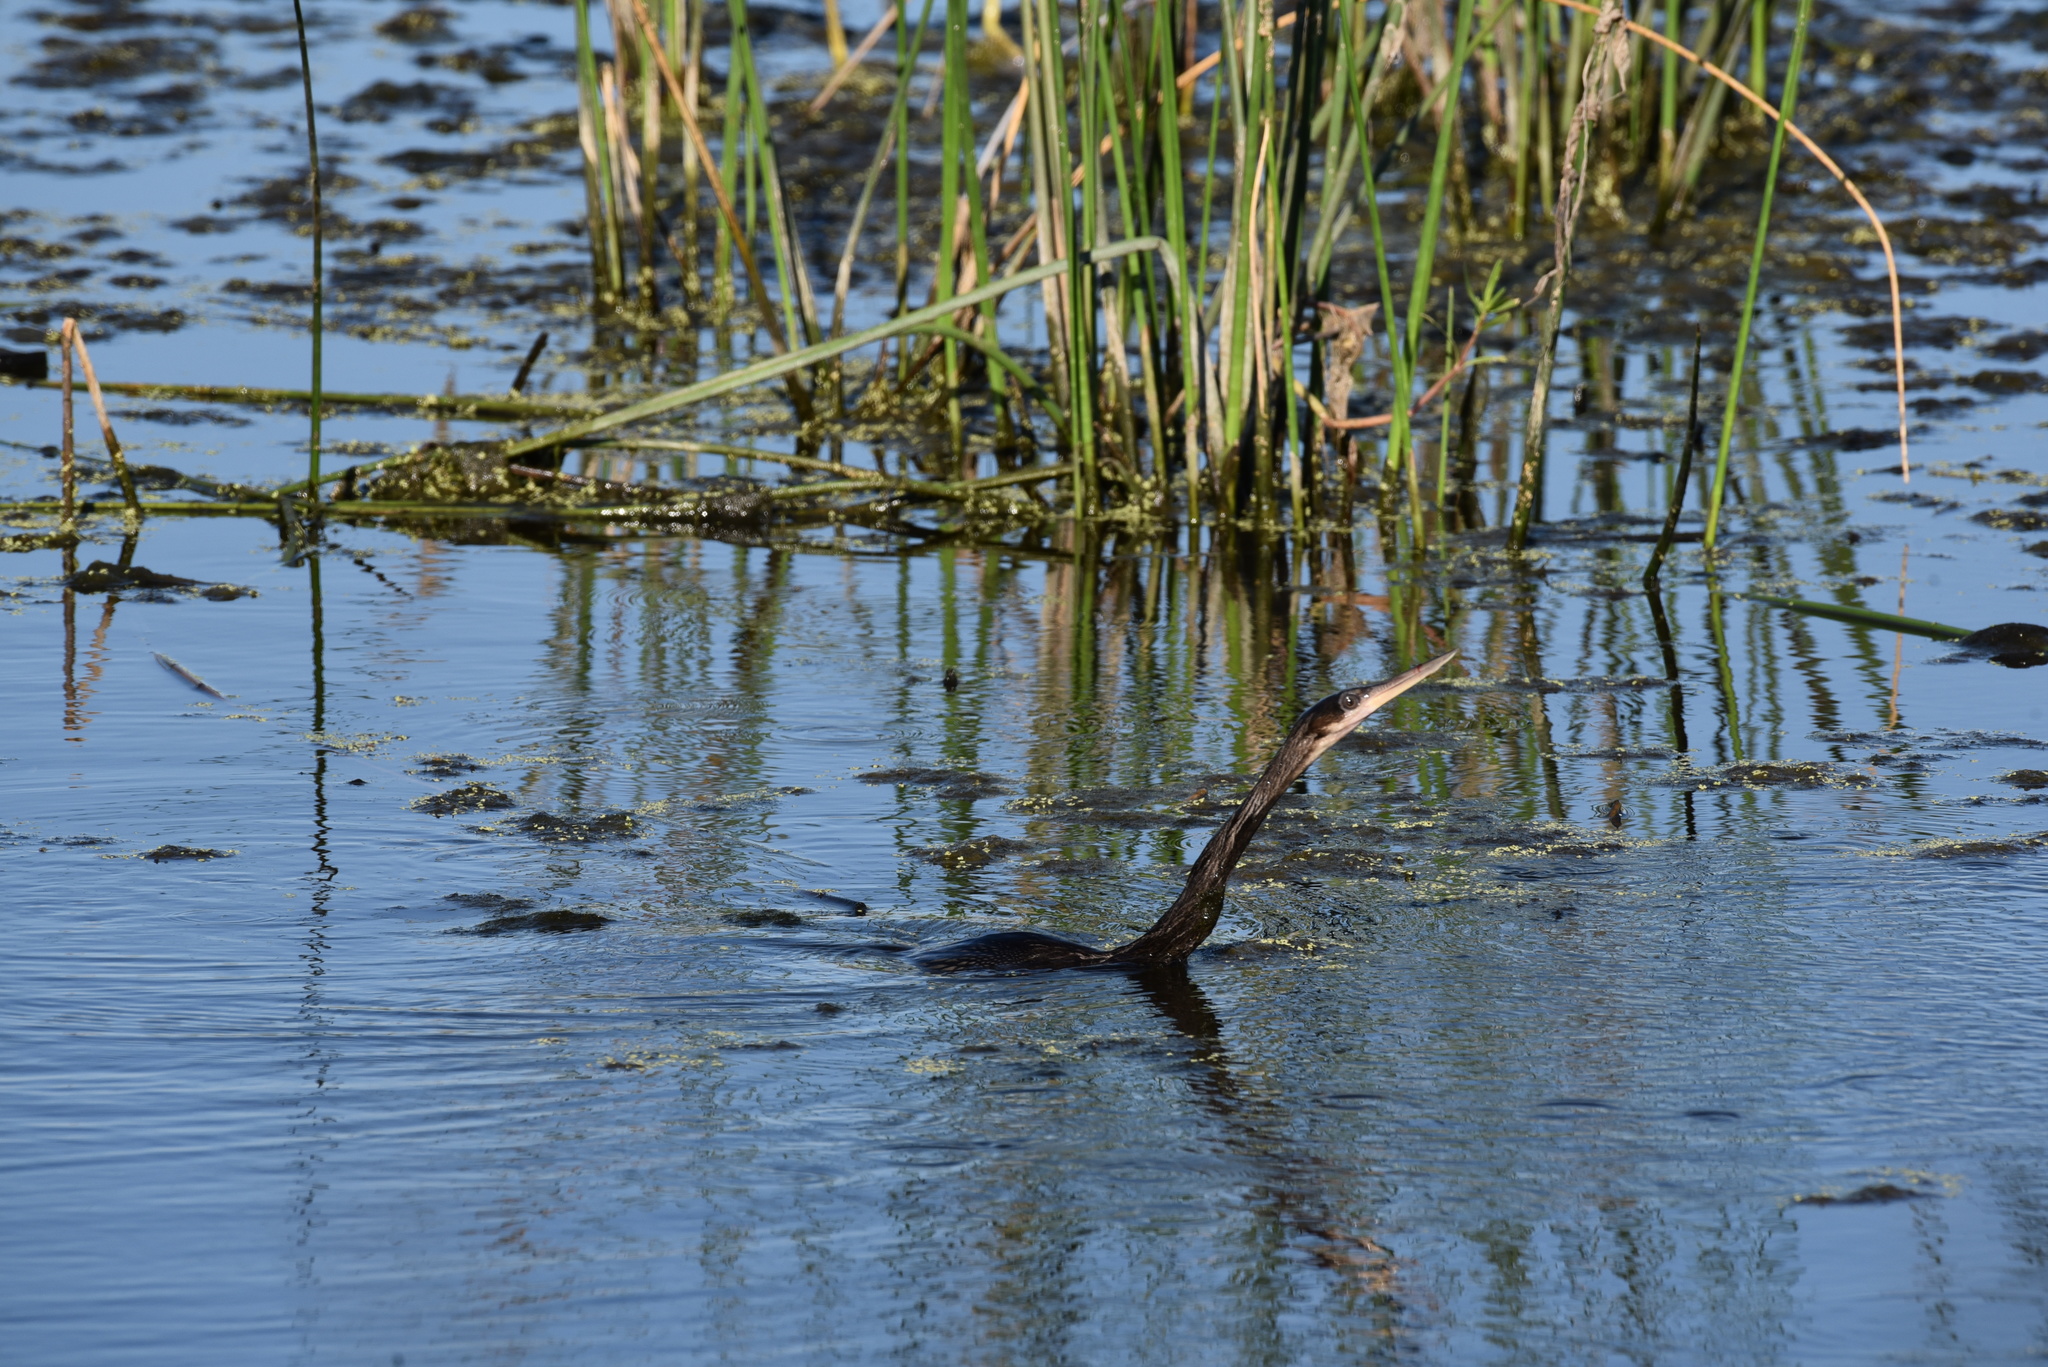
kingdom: Animalia
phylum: Chordata
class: Aves
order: Suliformes
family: Anhingidae
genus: Anhinga
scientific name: Anhinga anhinga
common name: Anhinga
